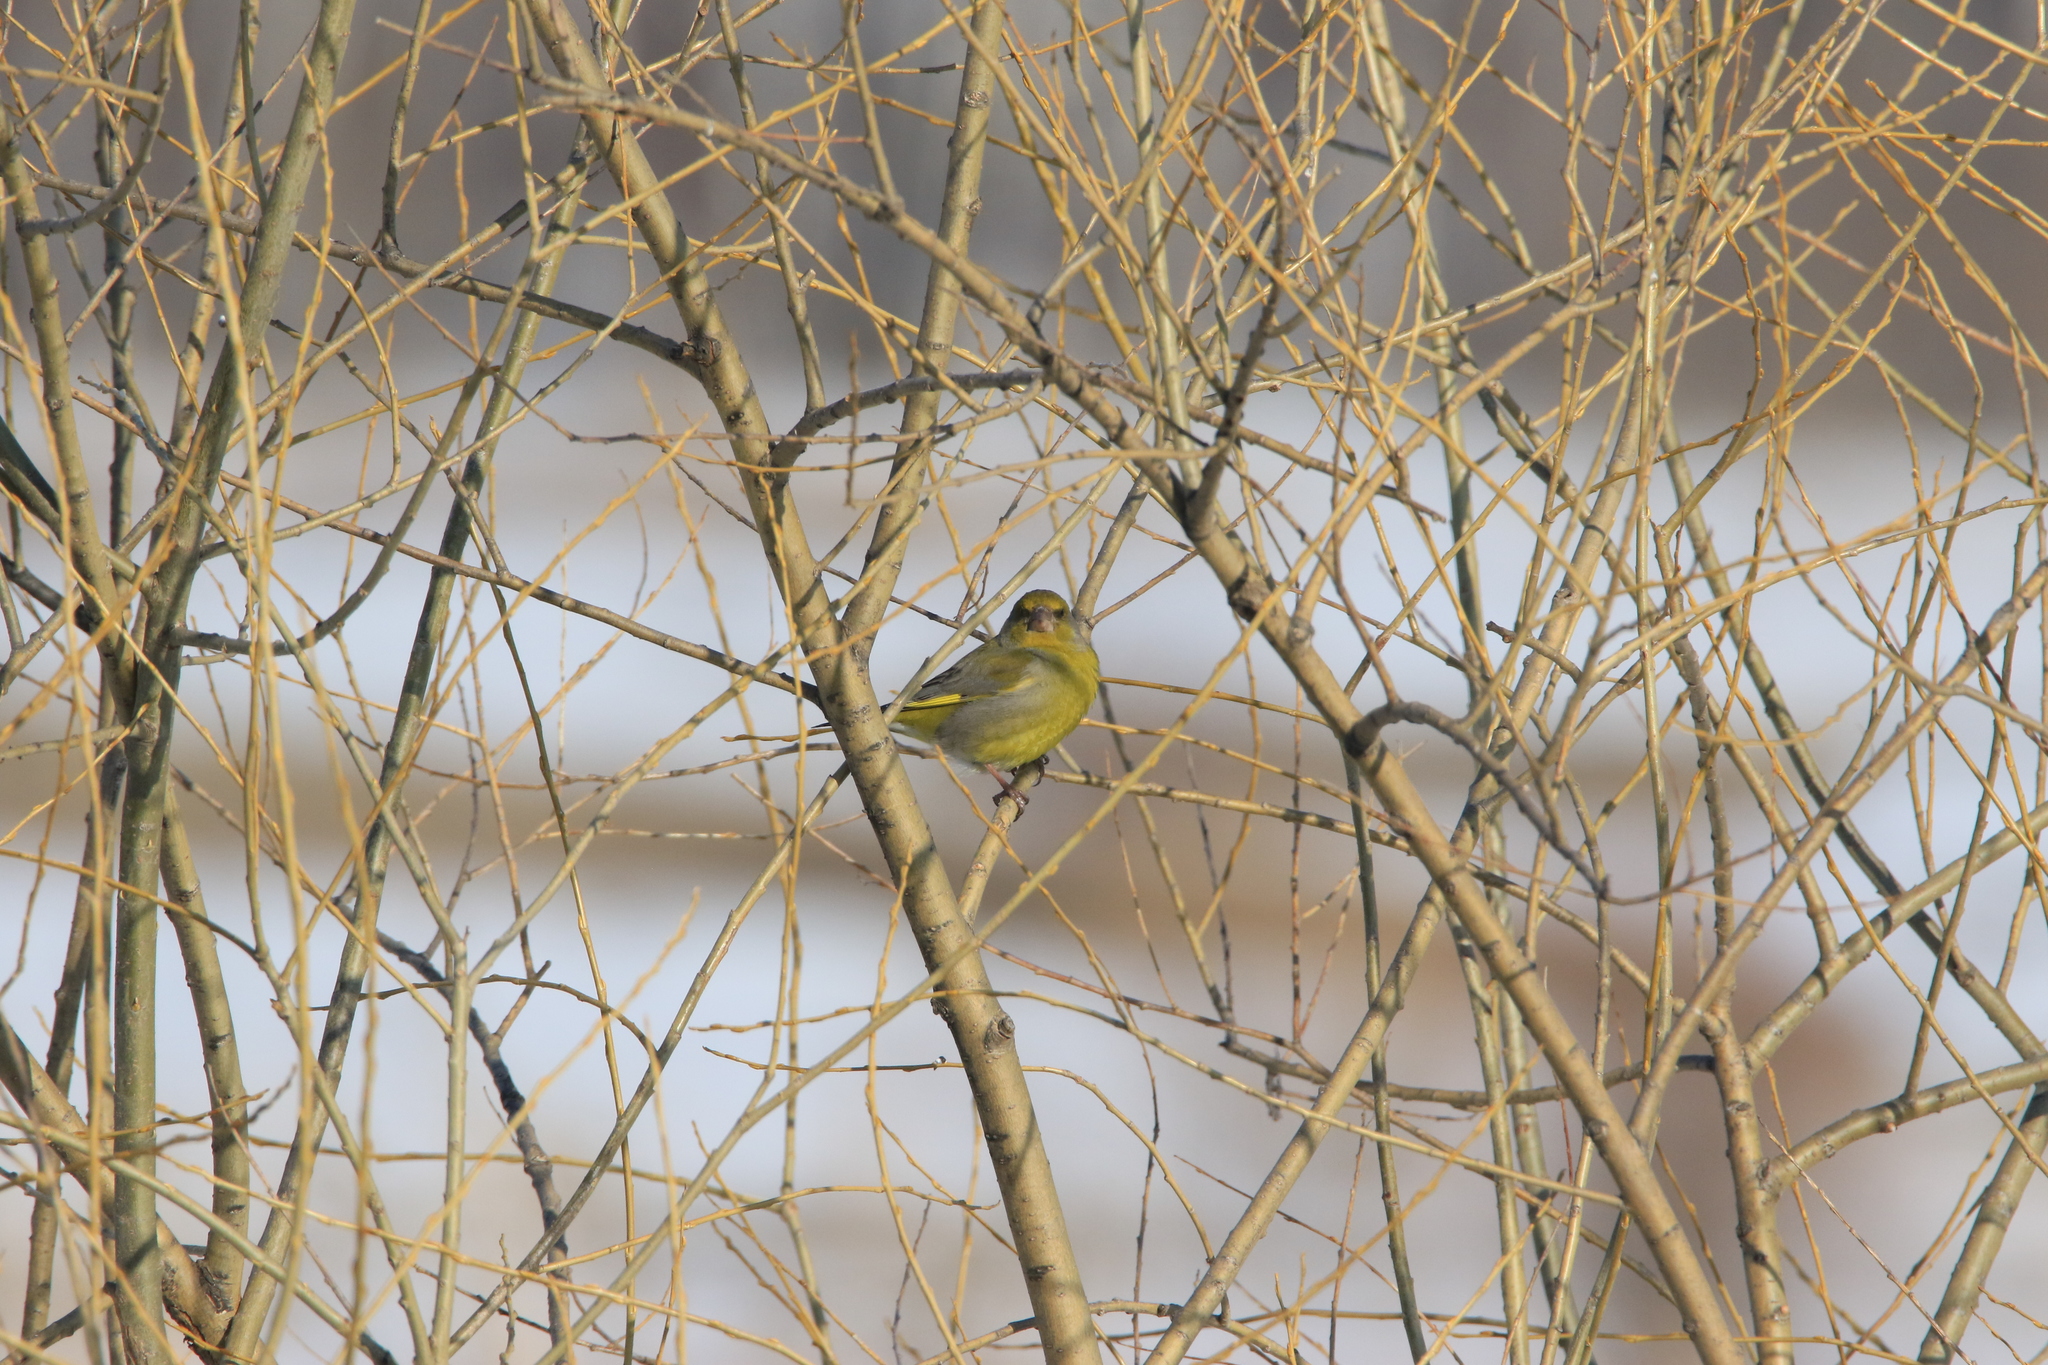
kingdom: Plantae
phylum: Tracheophyta
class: Liliopsida
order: Poales
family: Poaceae
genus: Chloris
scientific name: Chloris chloris
